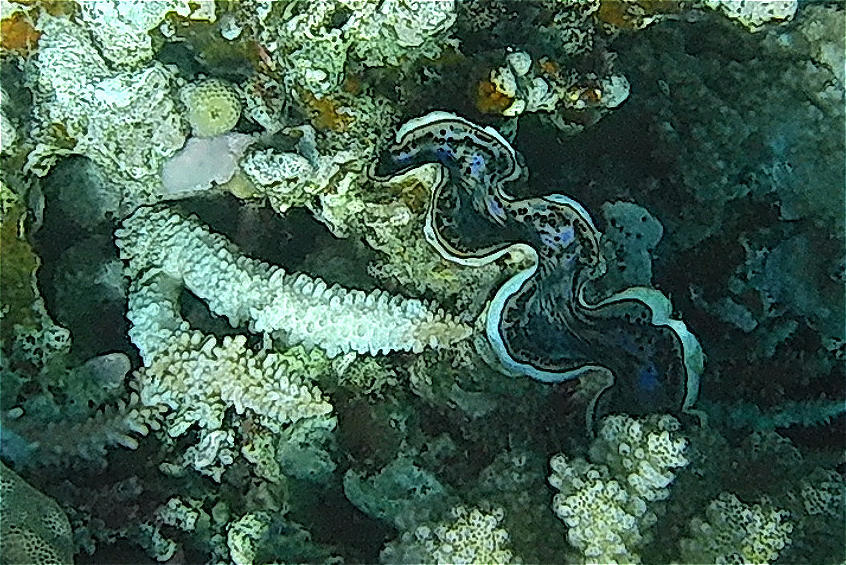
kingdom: Animalia
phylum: Mollusca
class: Bivalvia
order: Cardiida
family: Cardiidae
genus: Tridacna
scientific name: Tridacna maxima
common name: Small giant clam
